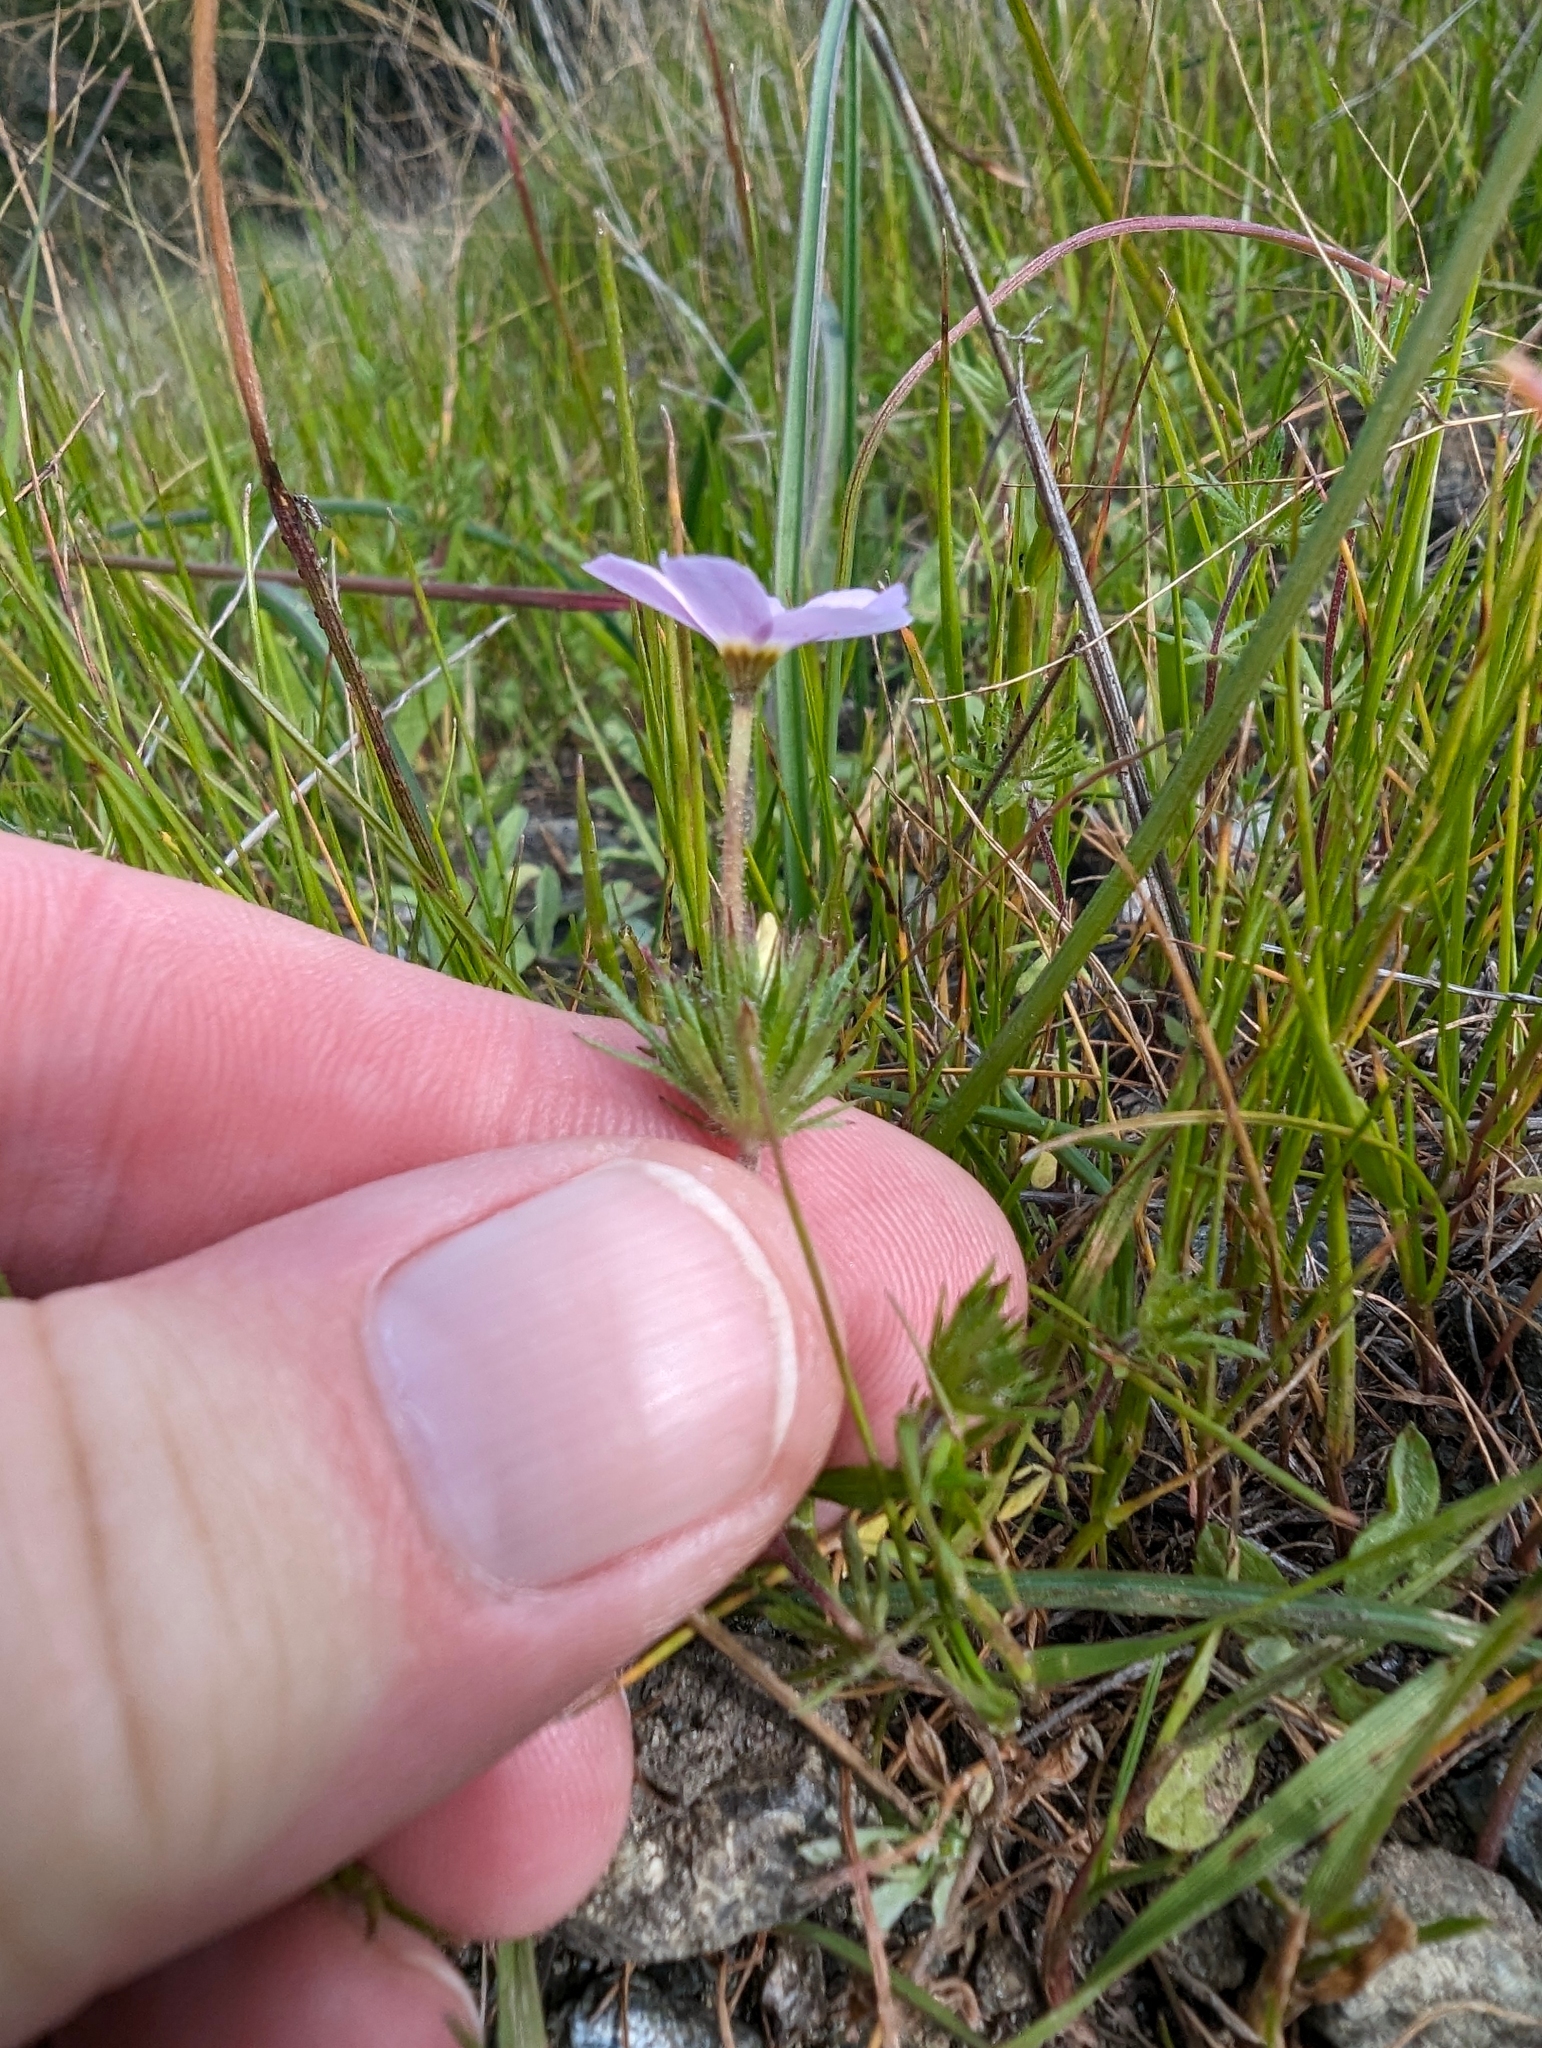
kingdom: Plantae
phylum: Tracheophyta
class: Magnoliopsida
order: Ericales
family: Polemoniaceae
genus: Leptosiphon
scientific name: Leptosiphon androsaceus
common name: False babystars
